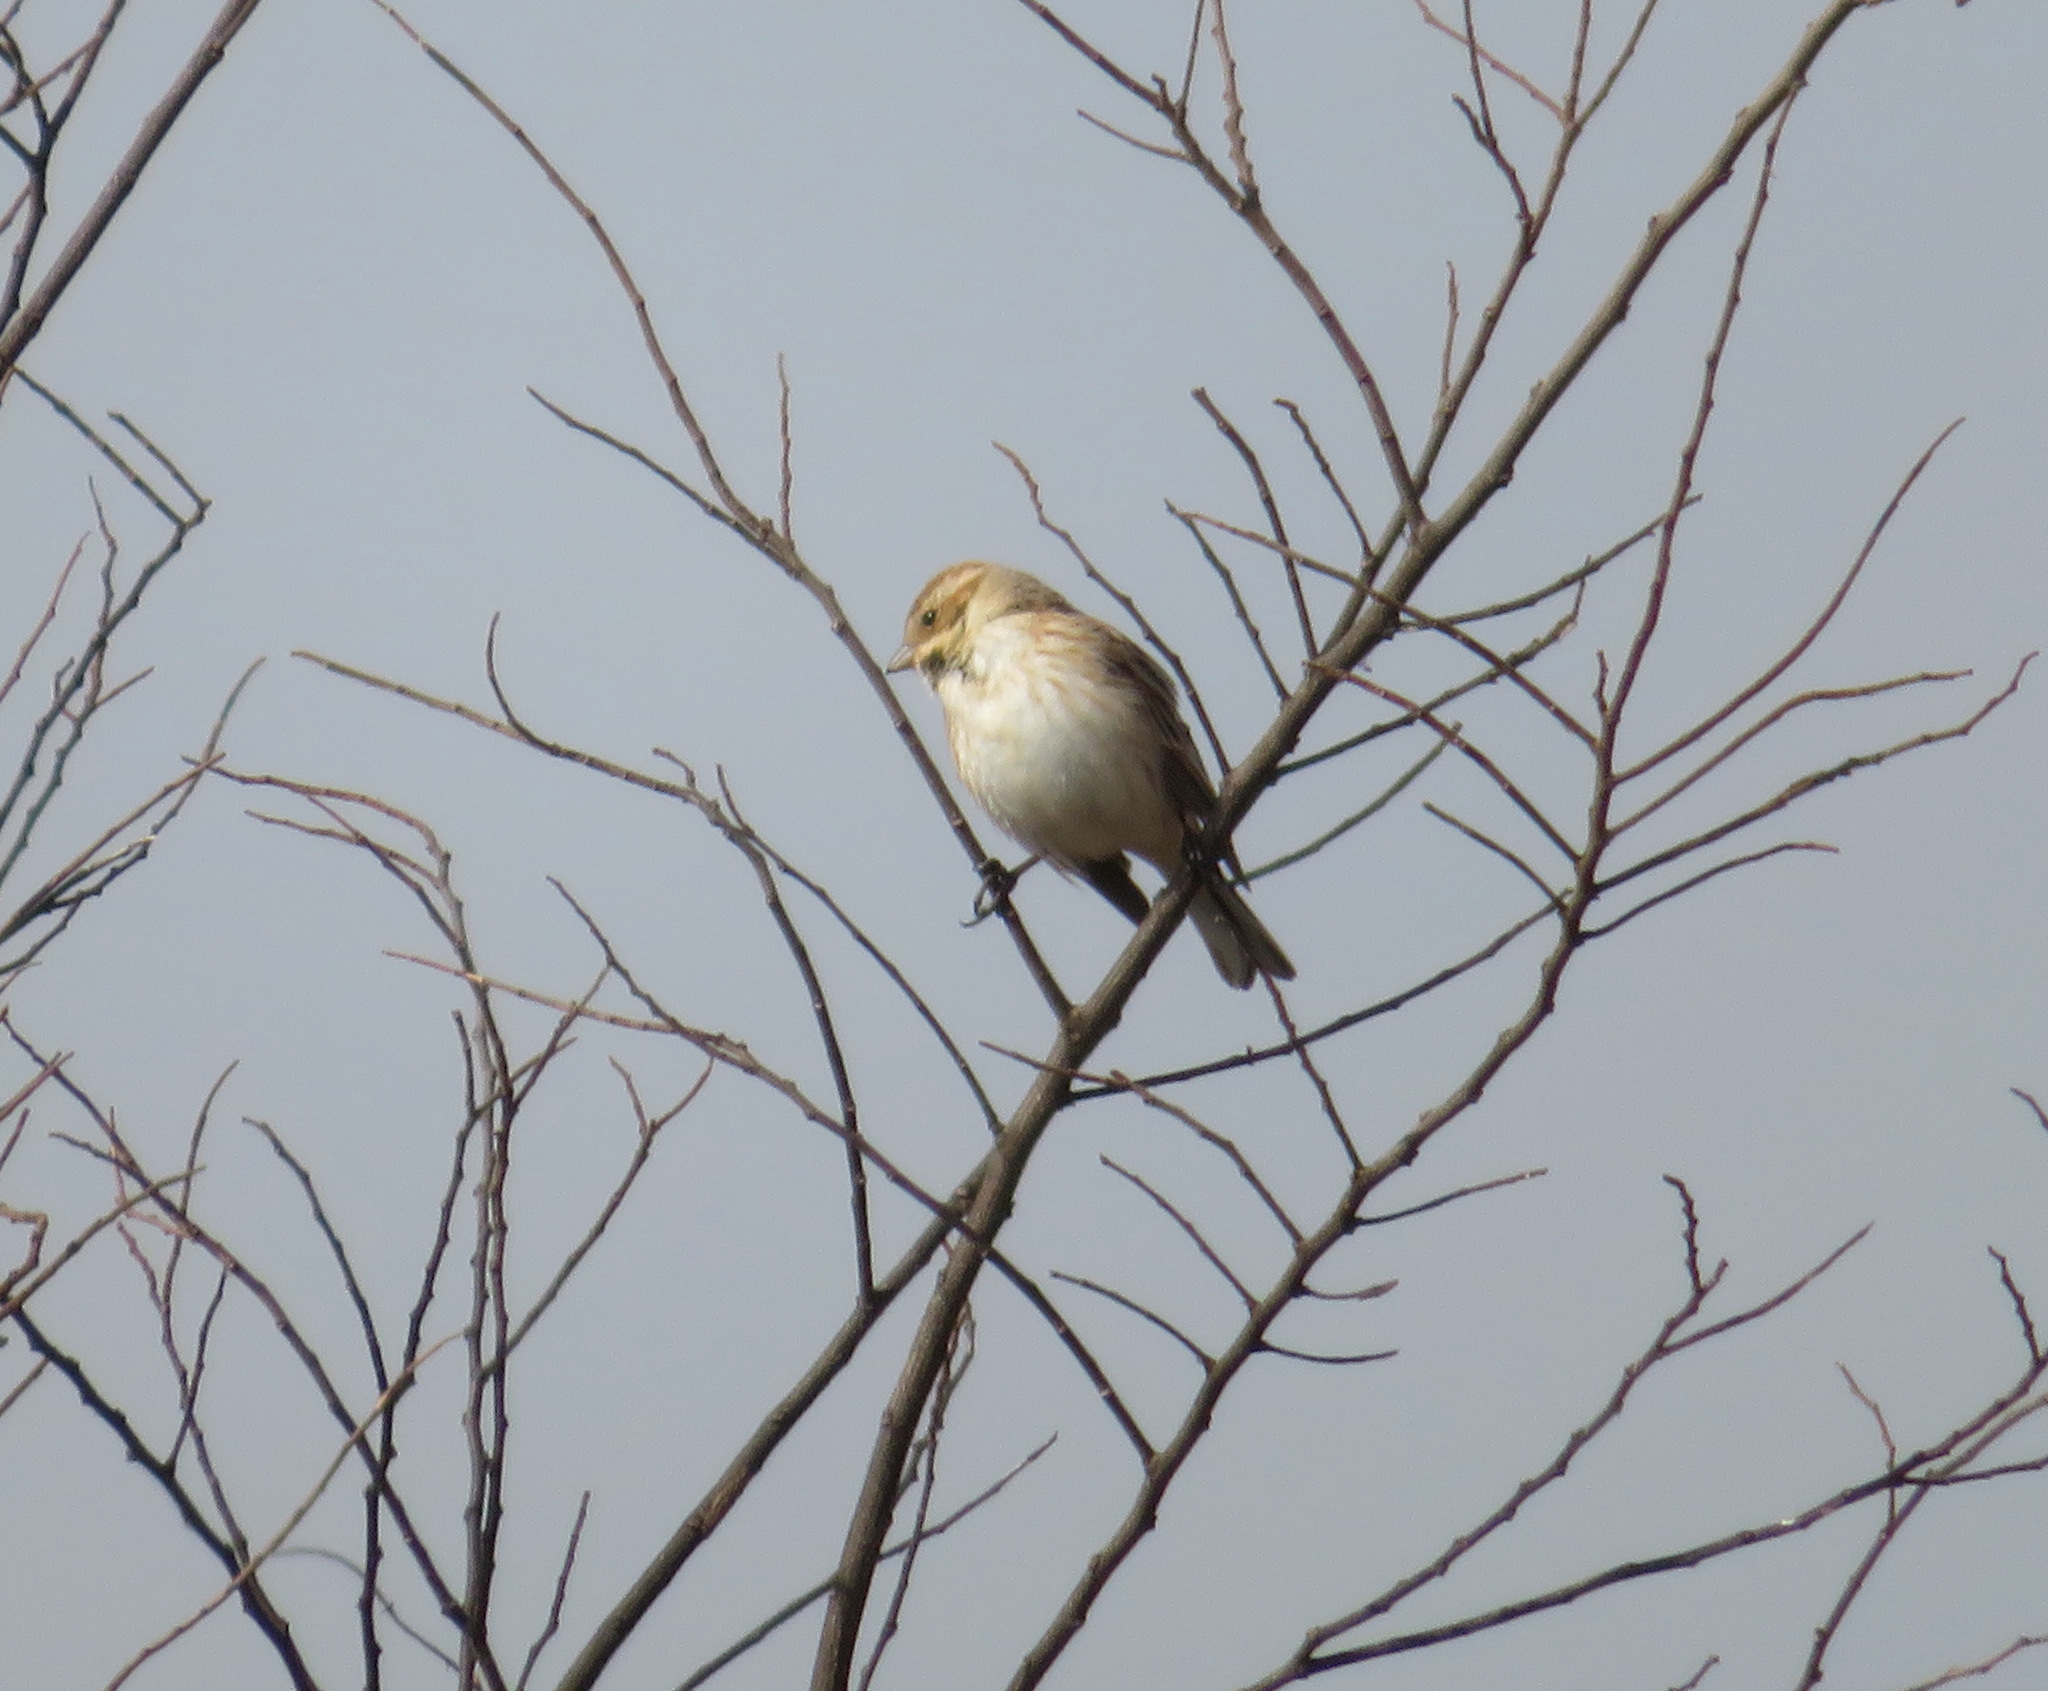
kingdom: Animalia
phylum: Chordata
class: Aves
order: Passeriformes
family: Emberizidae
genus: Emberiza
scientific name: Emberiza schoeniclus
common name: Reed bunting
